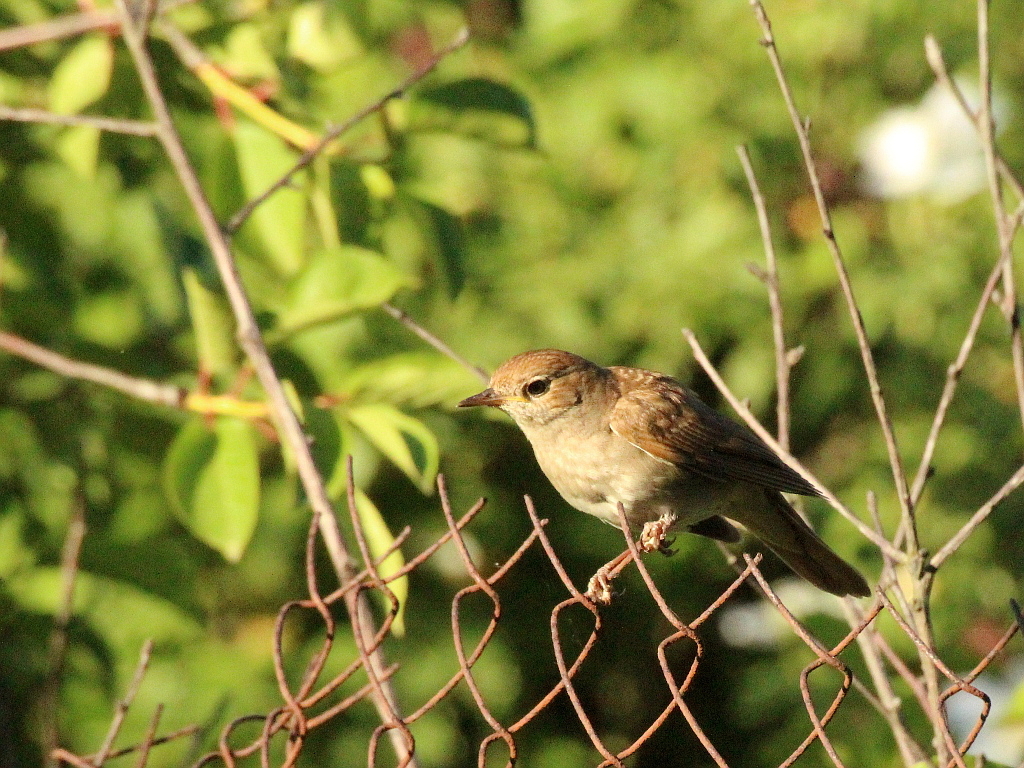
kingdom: Animalia
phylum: Chordata
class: Aves
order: Passeriformes
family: Muscicapidae
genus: Luscinia
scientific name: Luscinia megarhynchos
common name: Common nightingale
